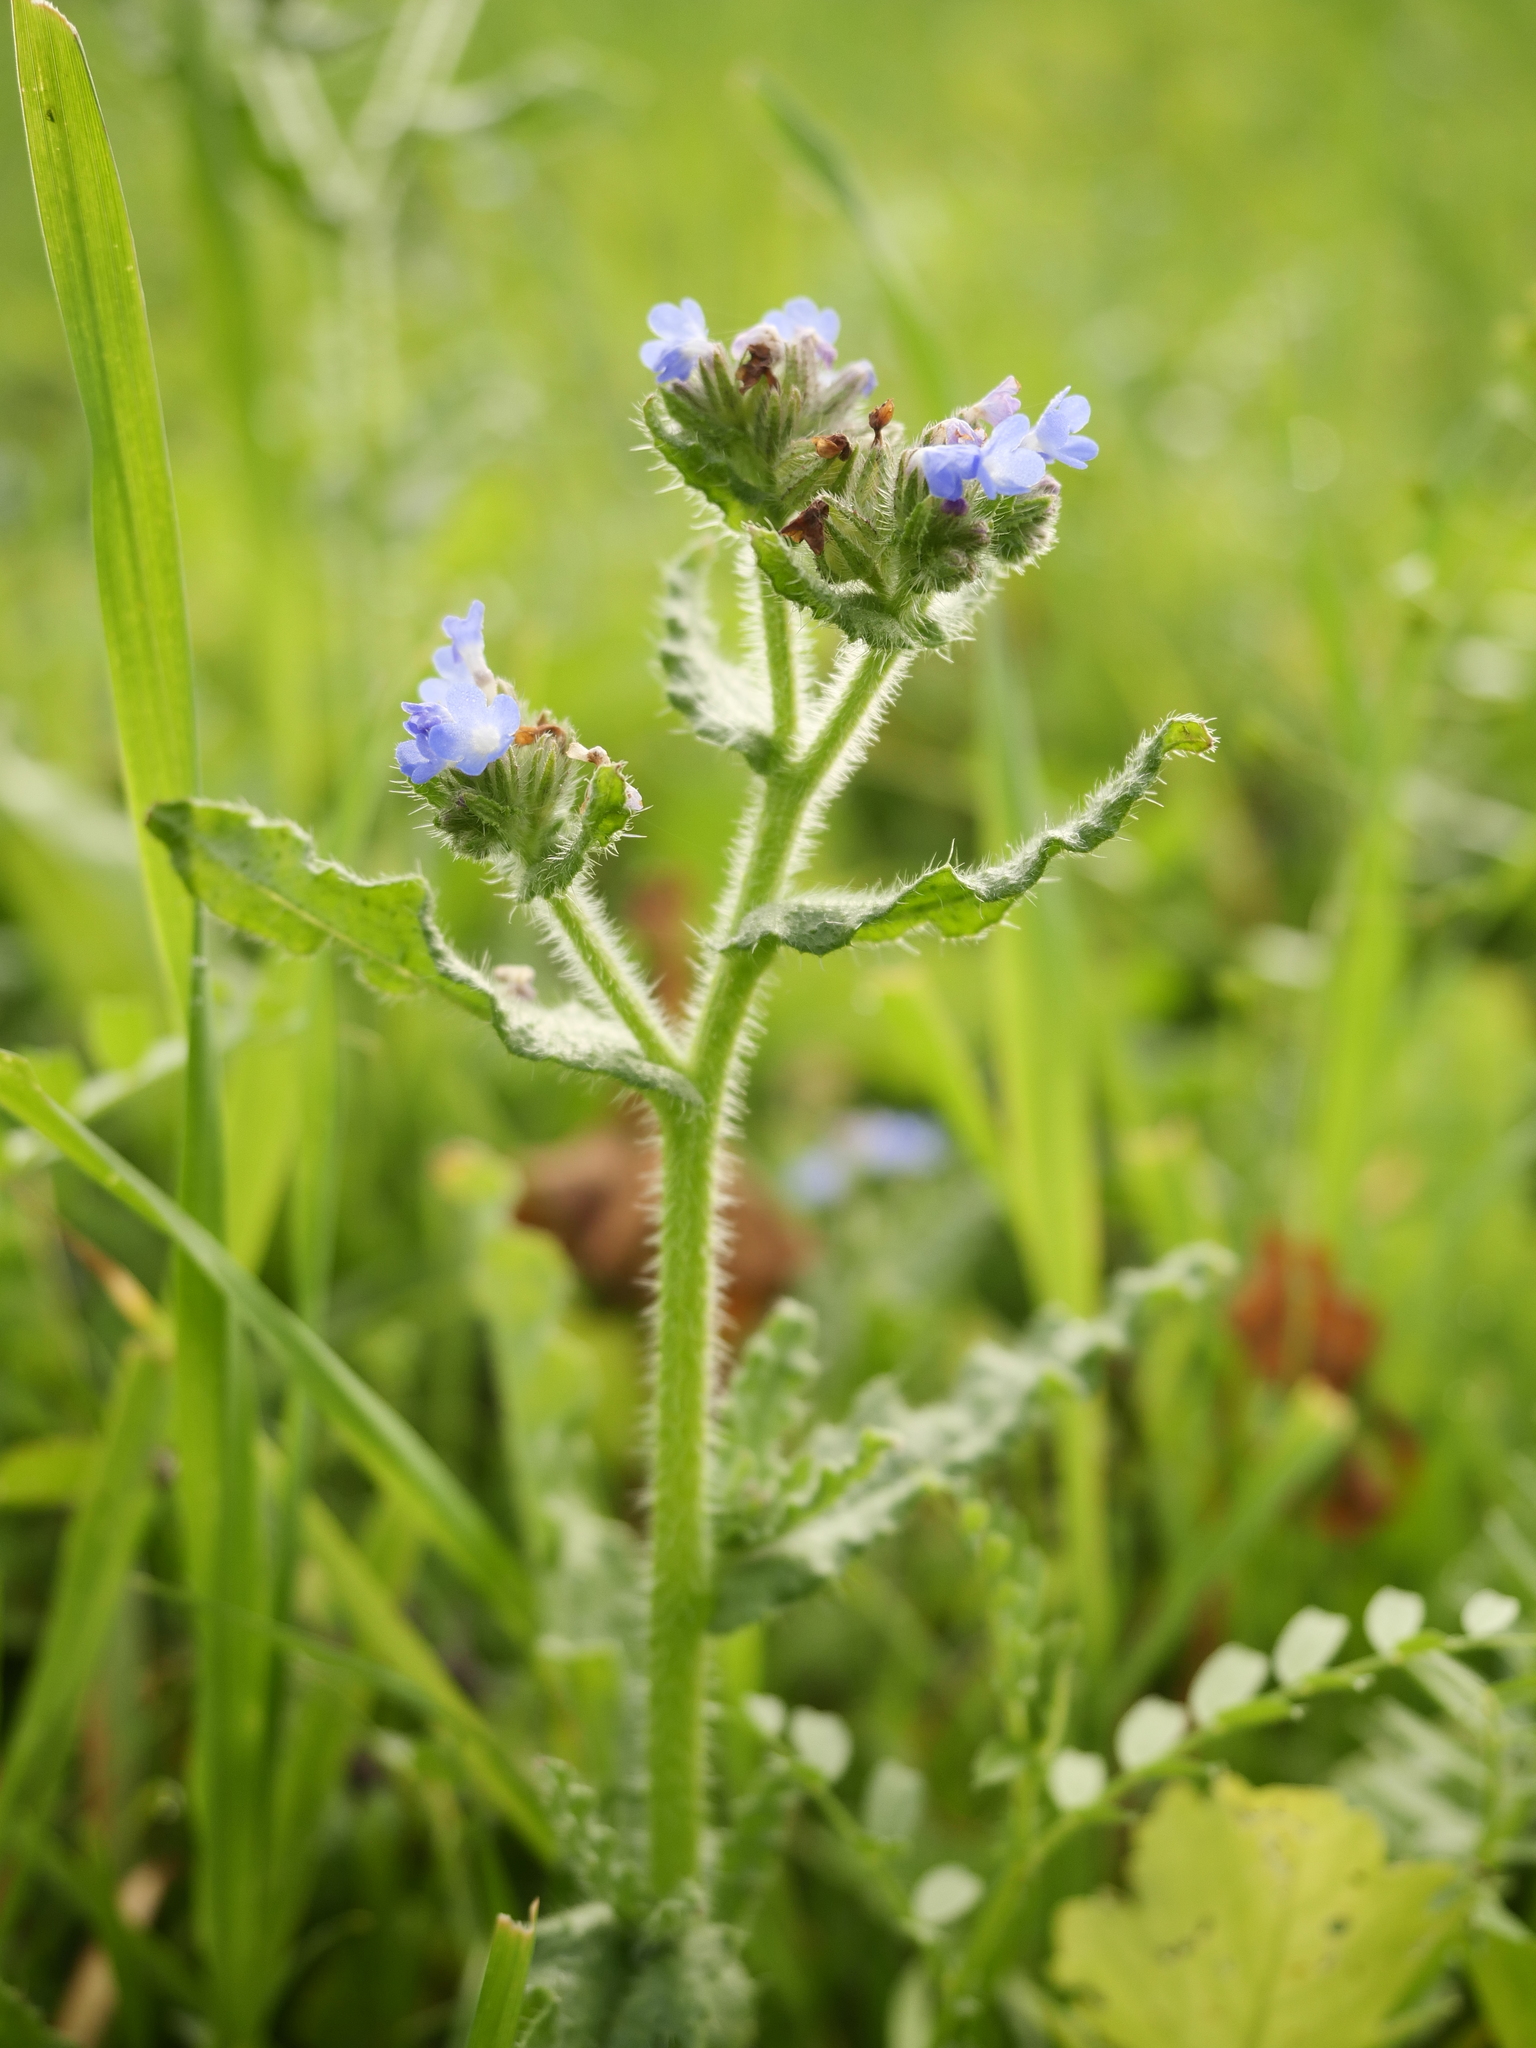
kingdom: Plantae
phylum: Tracheophyta
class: Magnoliopsida
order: Boraginales
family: Boraginaceae
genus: Lycopsis
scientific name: Lycopsis arvensis
